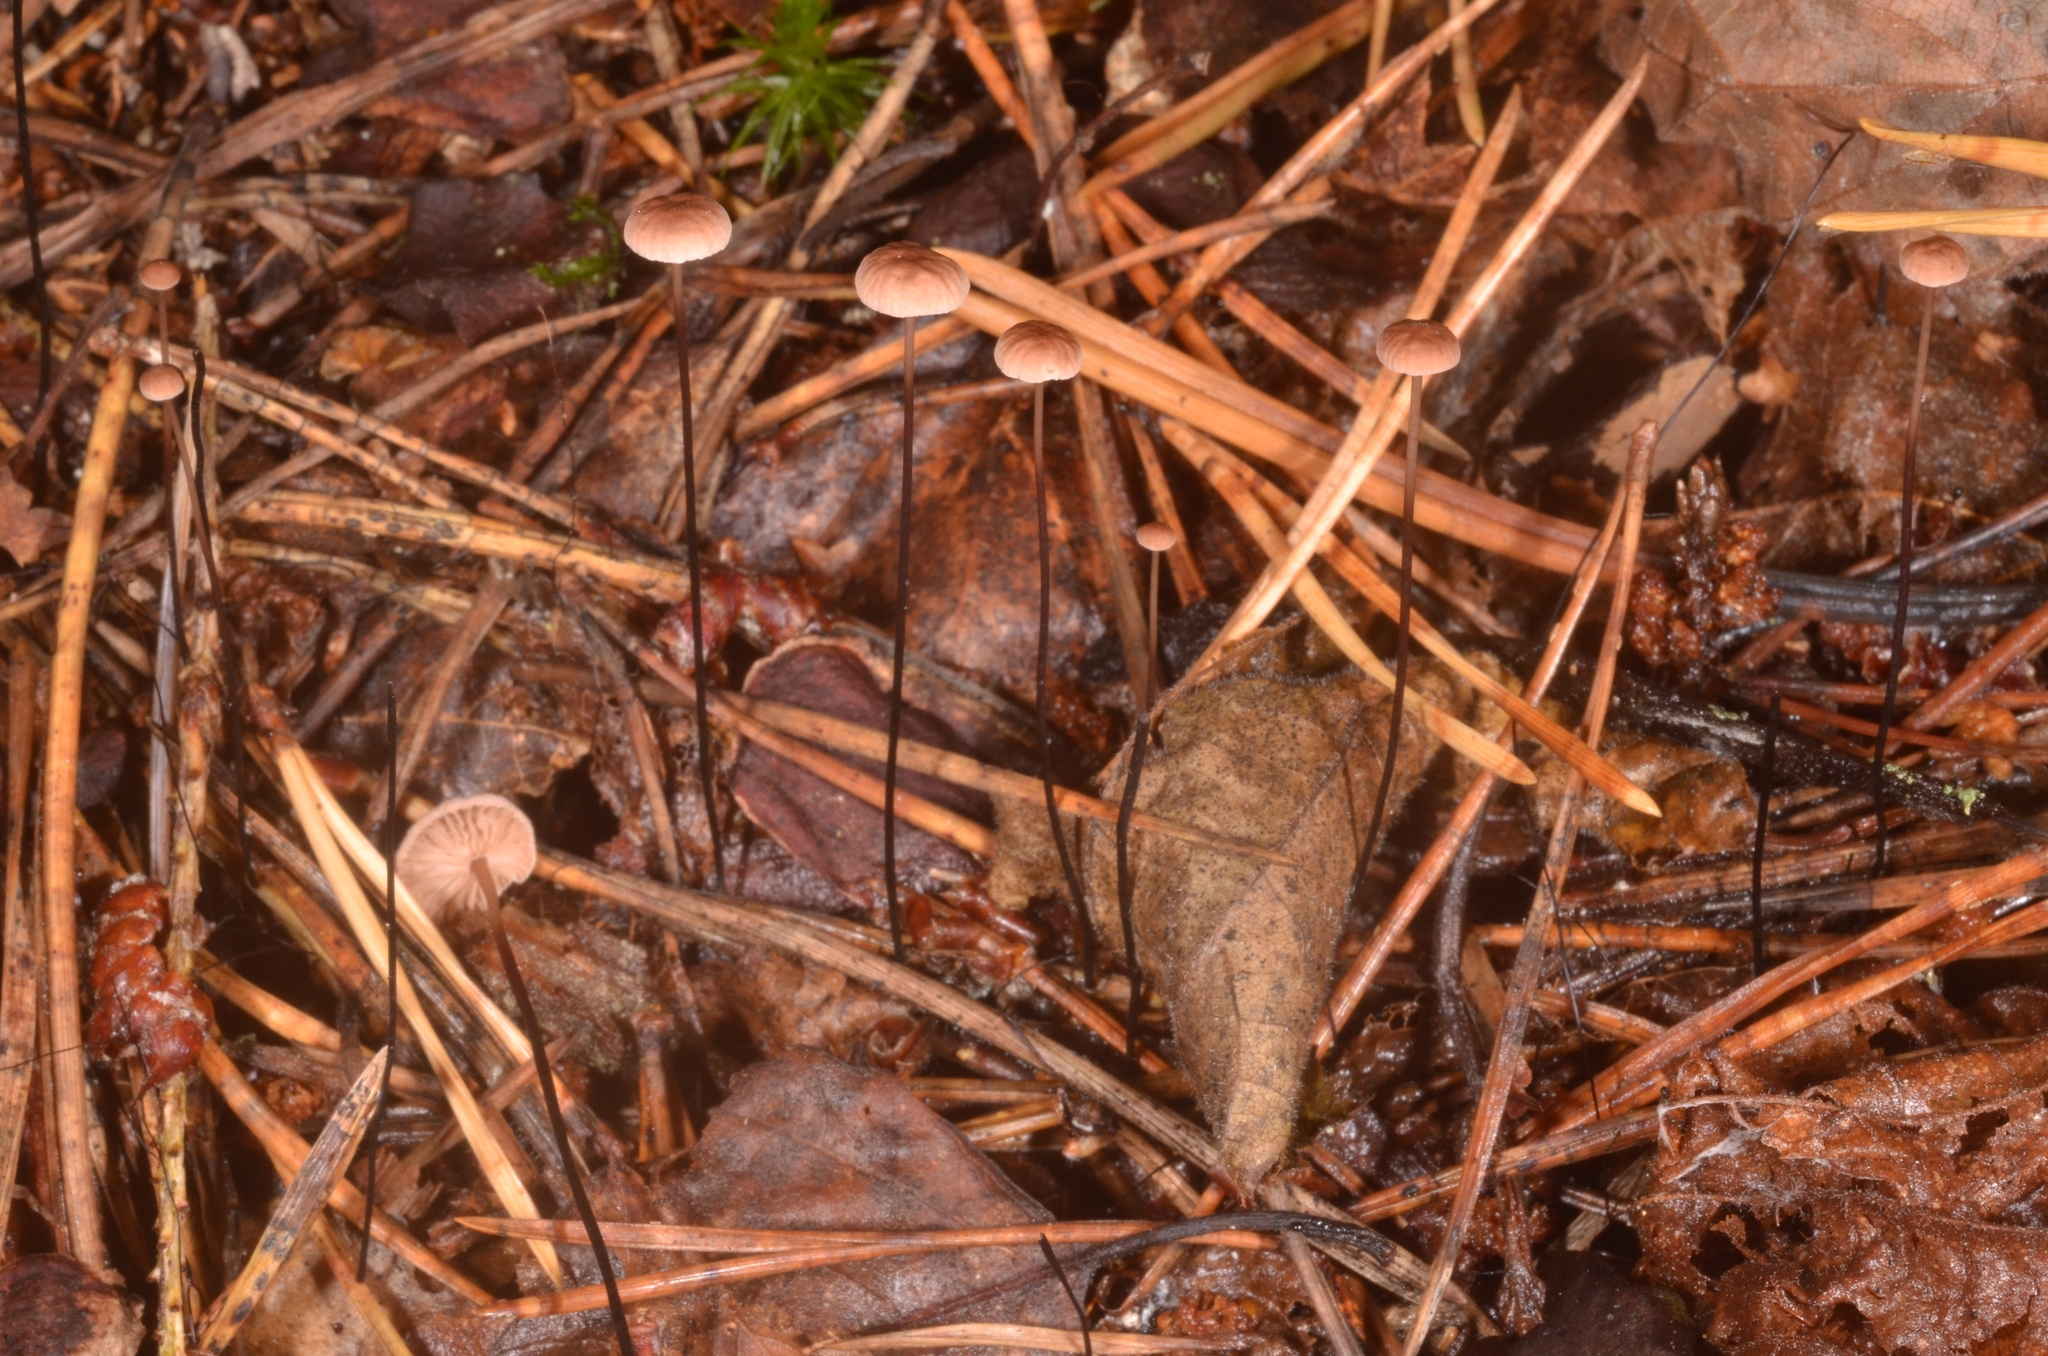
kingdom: Fungi
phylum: Basidiomycota
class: Agaricomycetes
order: Agaricales
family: Omphalotaceae
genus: Gymnopus
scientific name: Gymnopus androsaceus
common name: Horse-hair fungus
